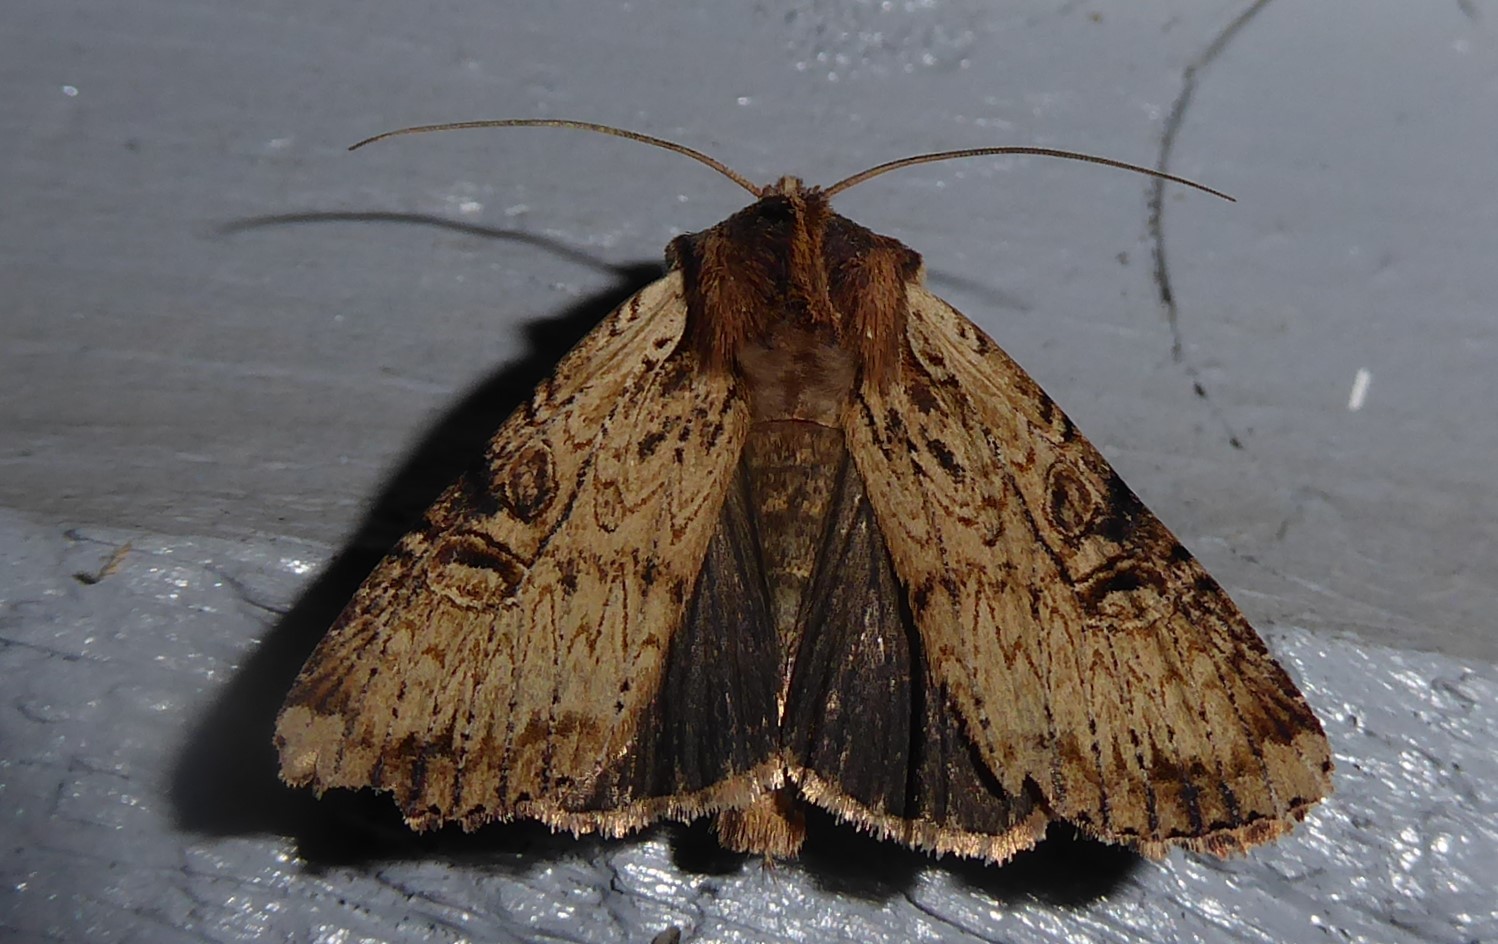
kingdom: Animalia
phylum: Arthropoda
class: Insecta
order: Lepidoptera
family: Noctuidae
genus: Ichneutica
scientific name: Ichneutica omoplaca
